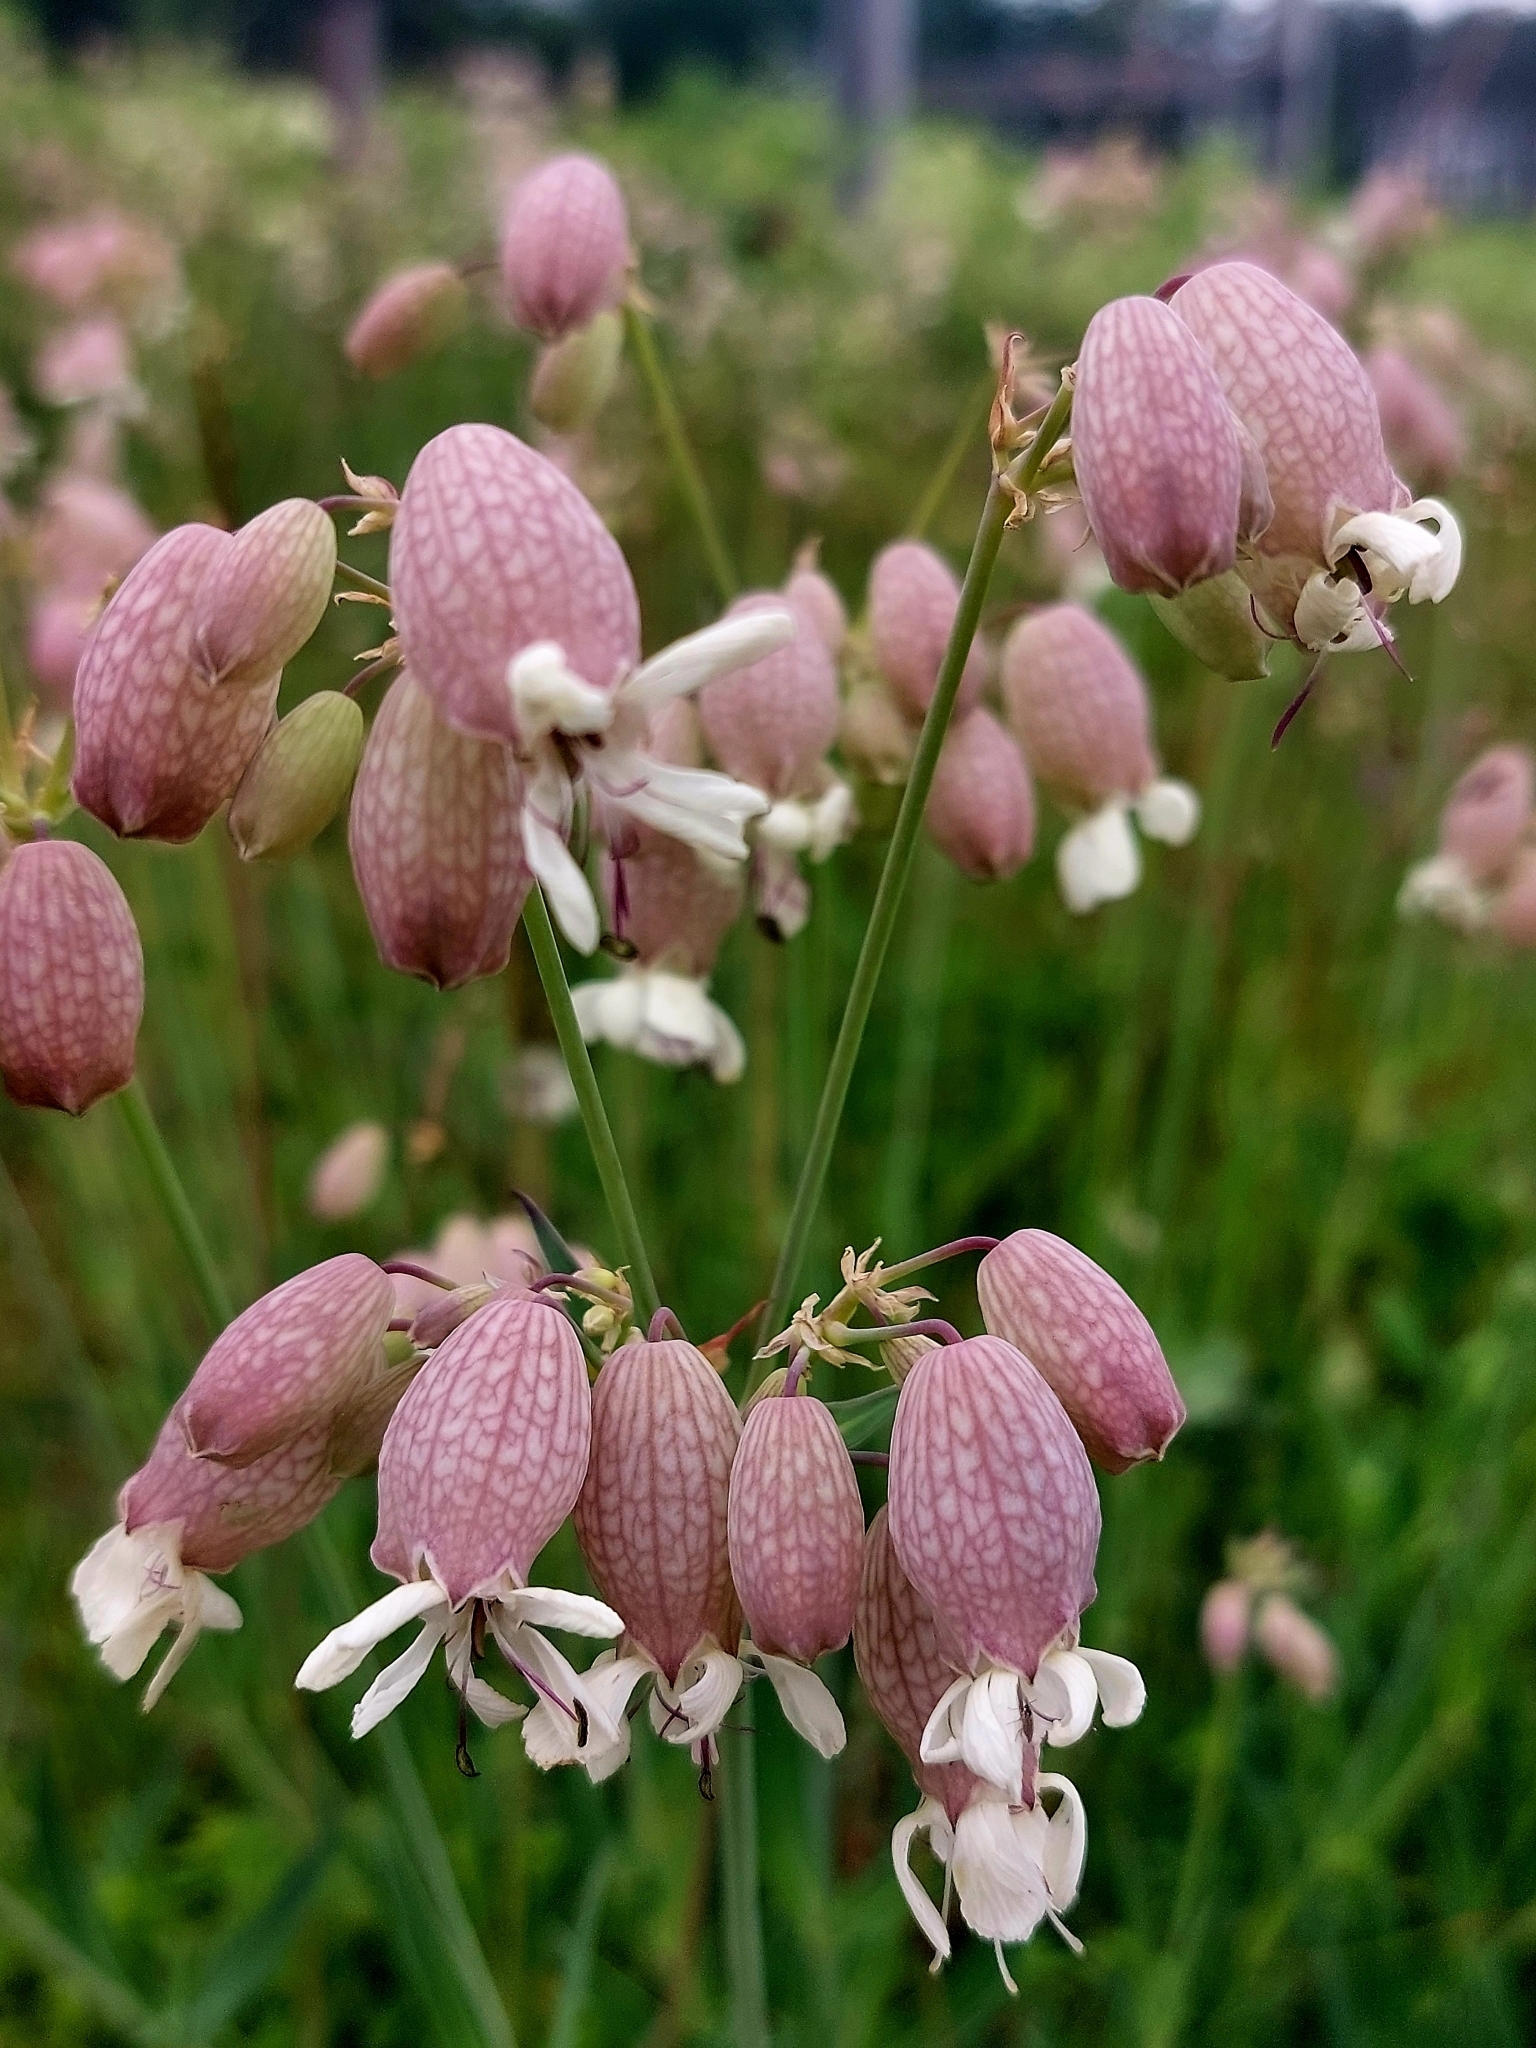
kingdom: Plantae
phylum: Tracheophyta
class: Magnoliopsida
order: Caryophyllales
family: Caryophyllaceae
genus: Silene
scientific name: Silene vulgaris
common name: Bladder campion
